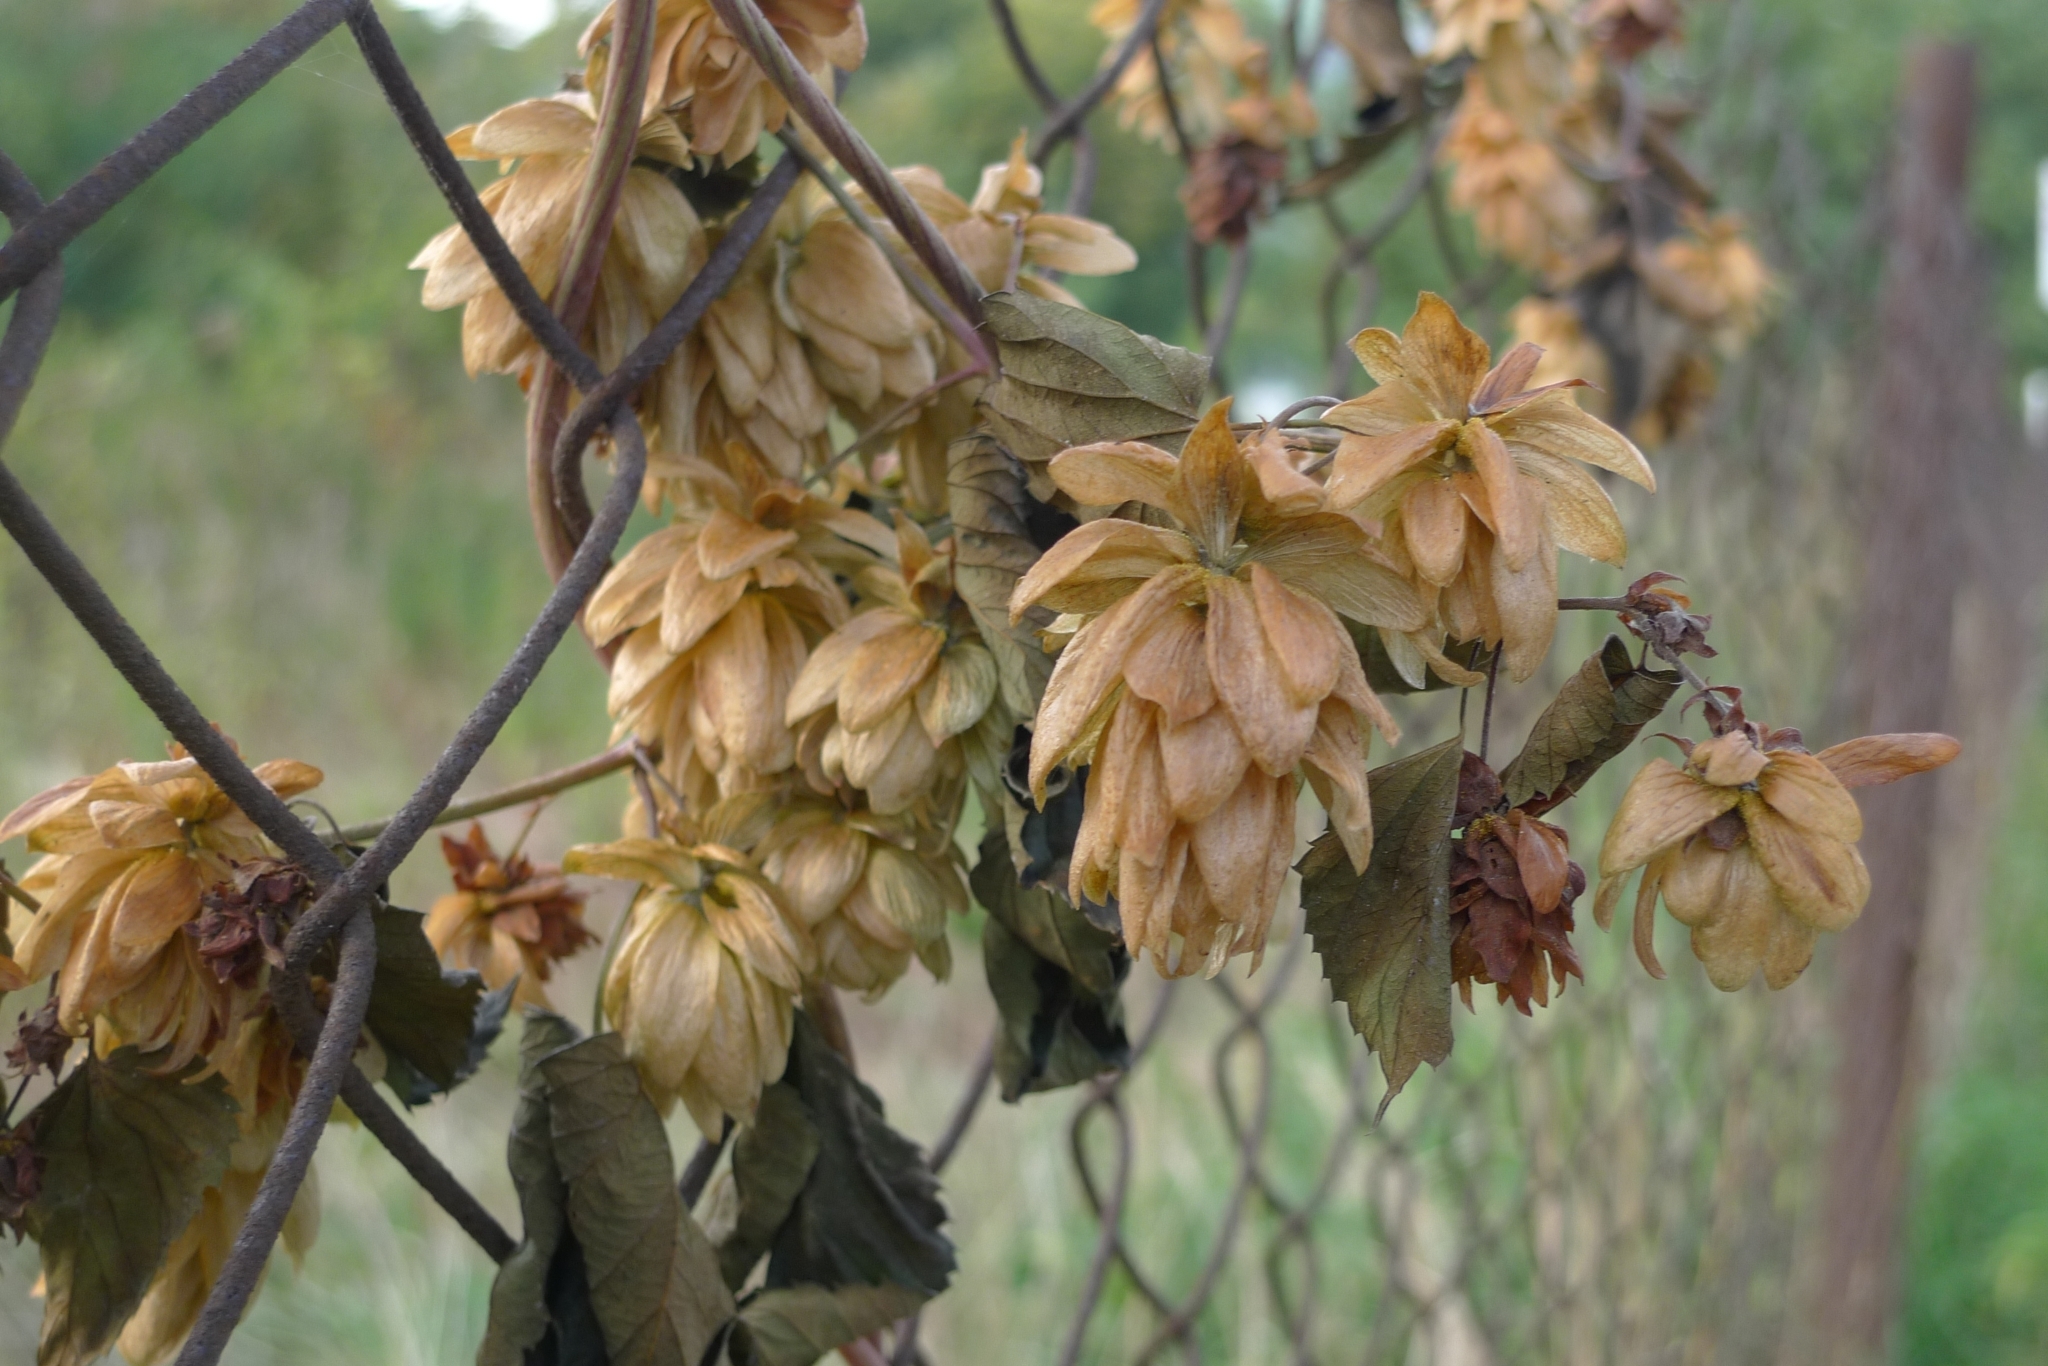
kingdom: Plantae
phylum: Tracheophyta
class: Magnoliopsida
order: Rosales
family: Cannabaceae
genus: Humulus
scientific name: Humulus lupulus
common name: Hop
